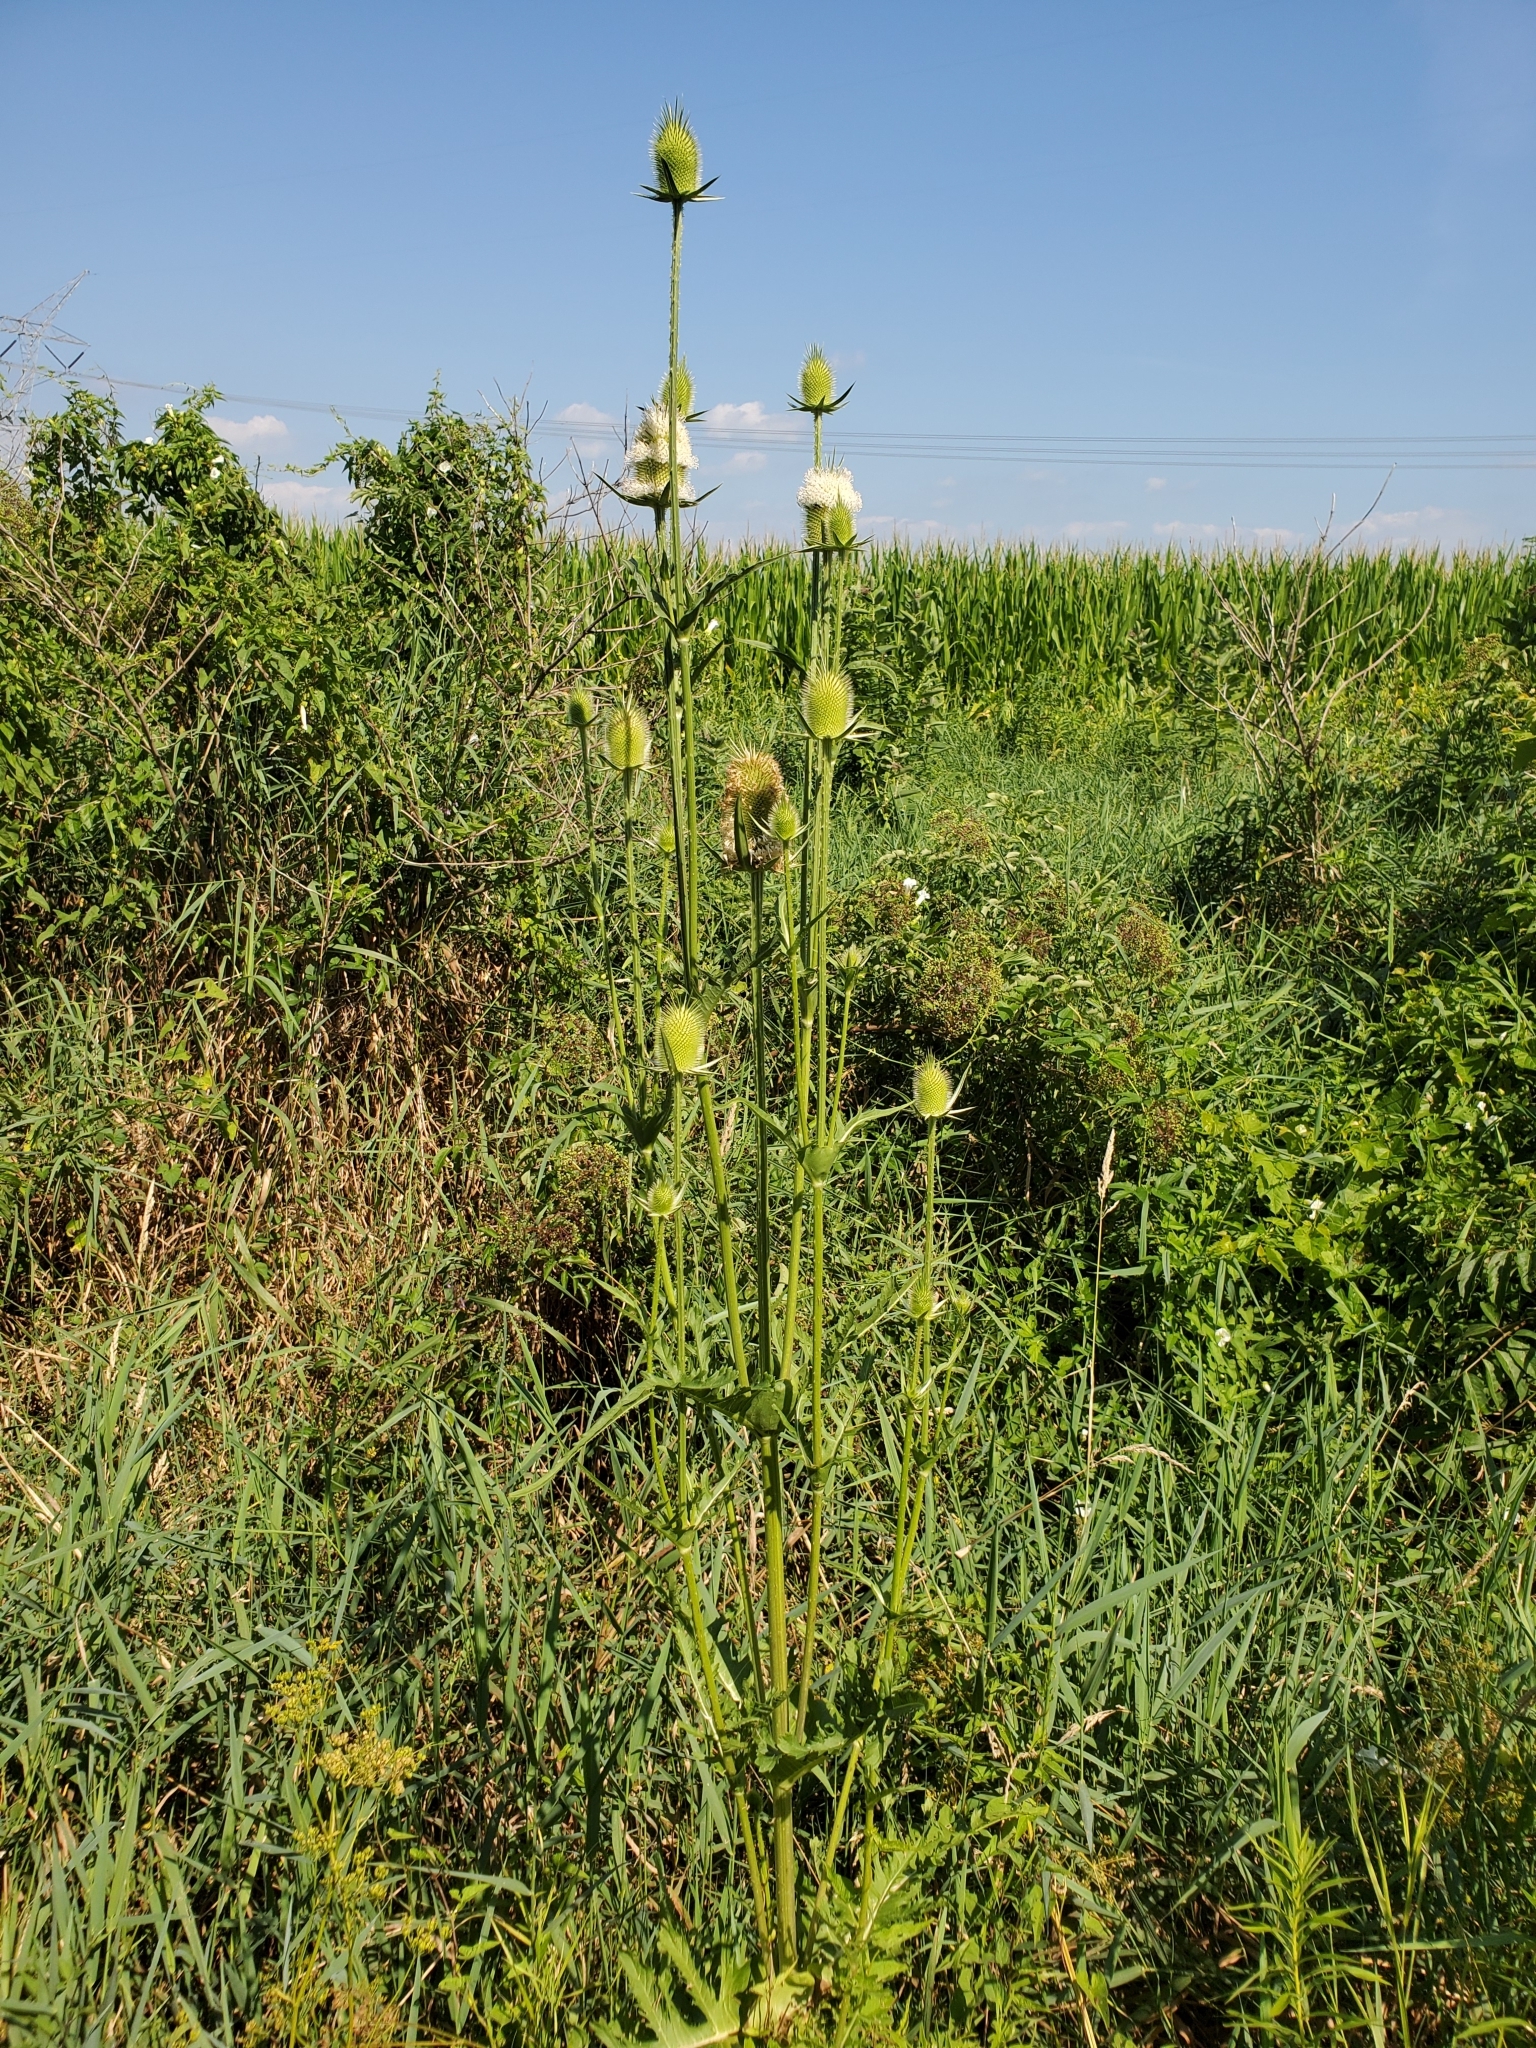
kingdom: Plantae
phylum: Tracheophyta
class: Magnoliopsida
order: Dipsacales
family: Caprifoliaceae
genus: Dipsacus
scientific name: Dipsacus laciniatus
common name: Cut-leaved teasel
